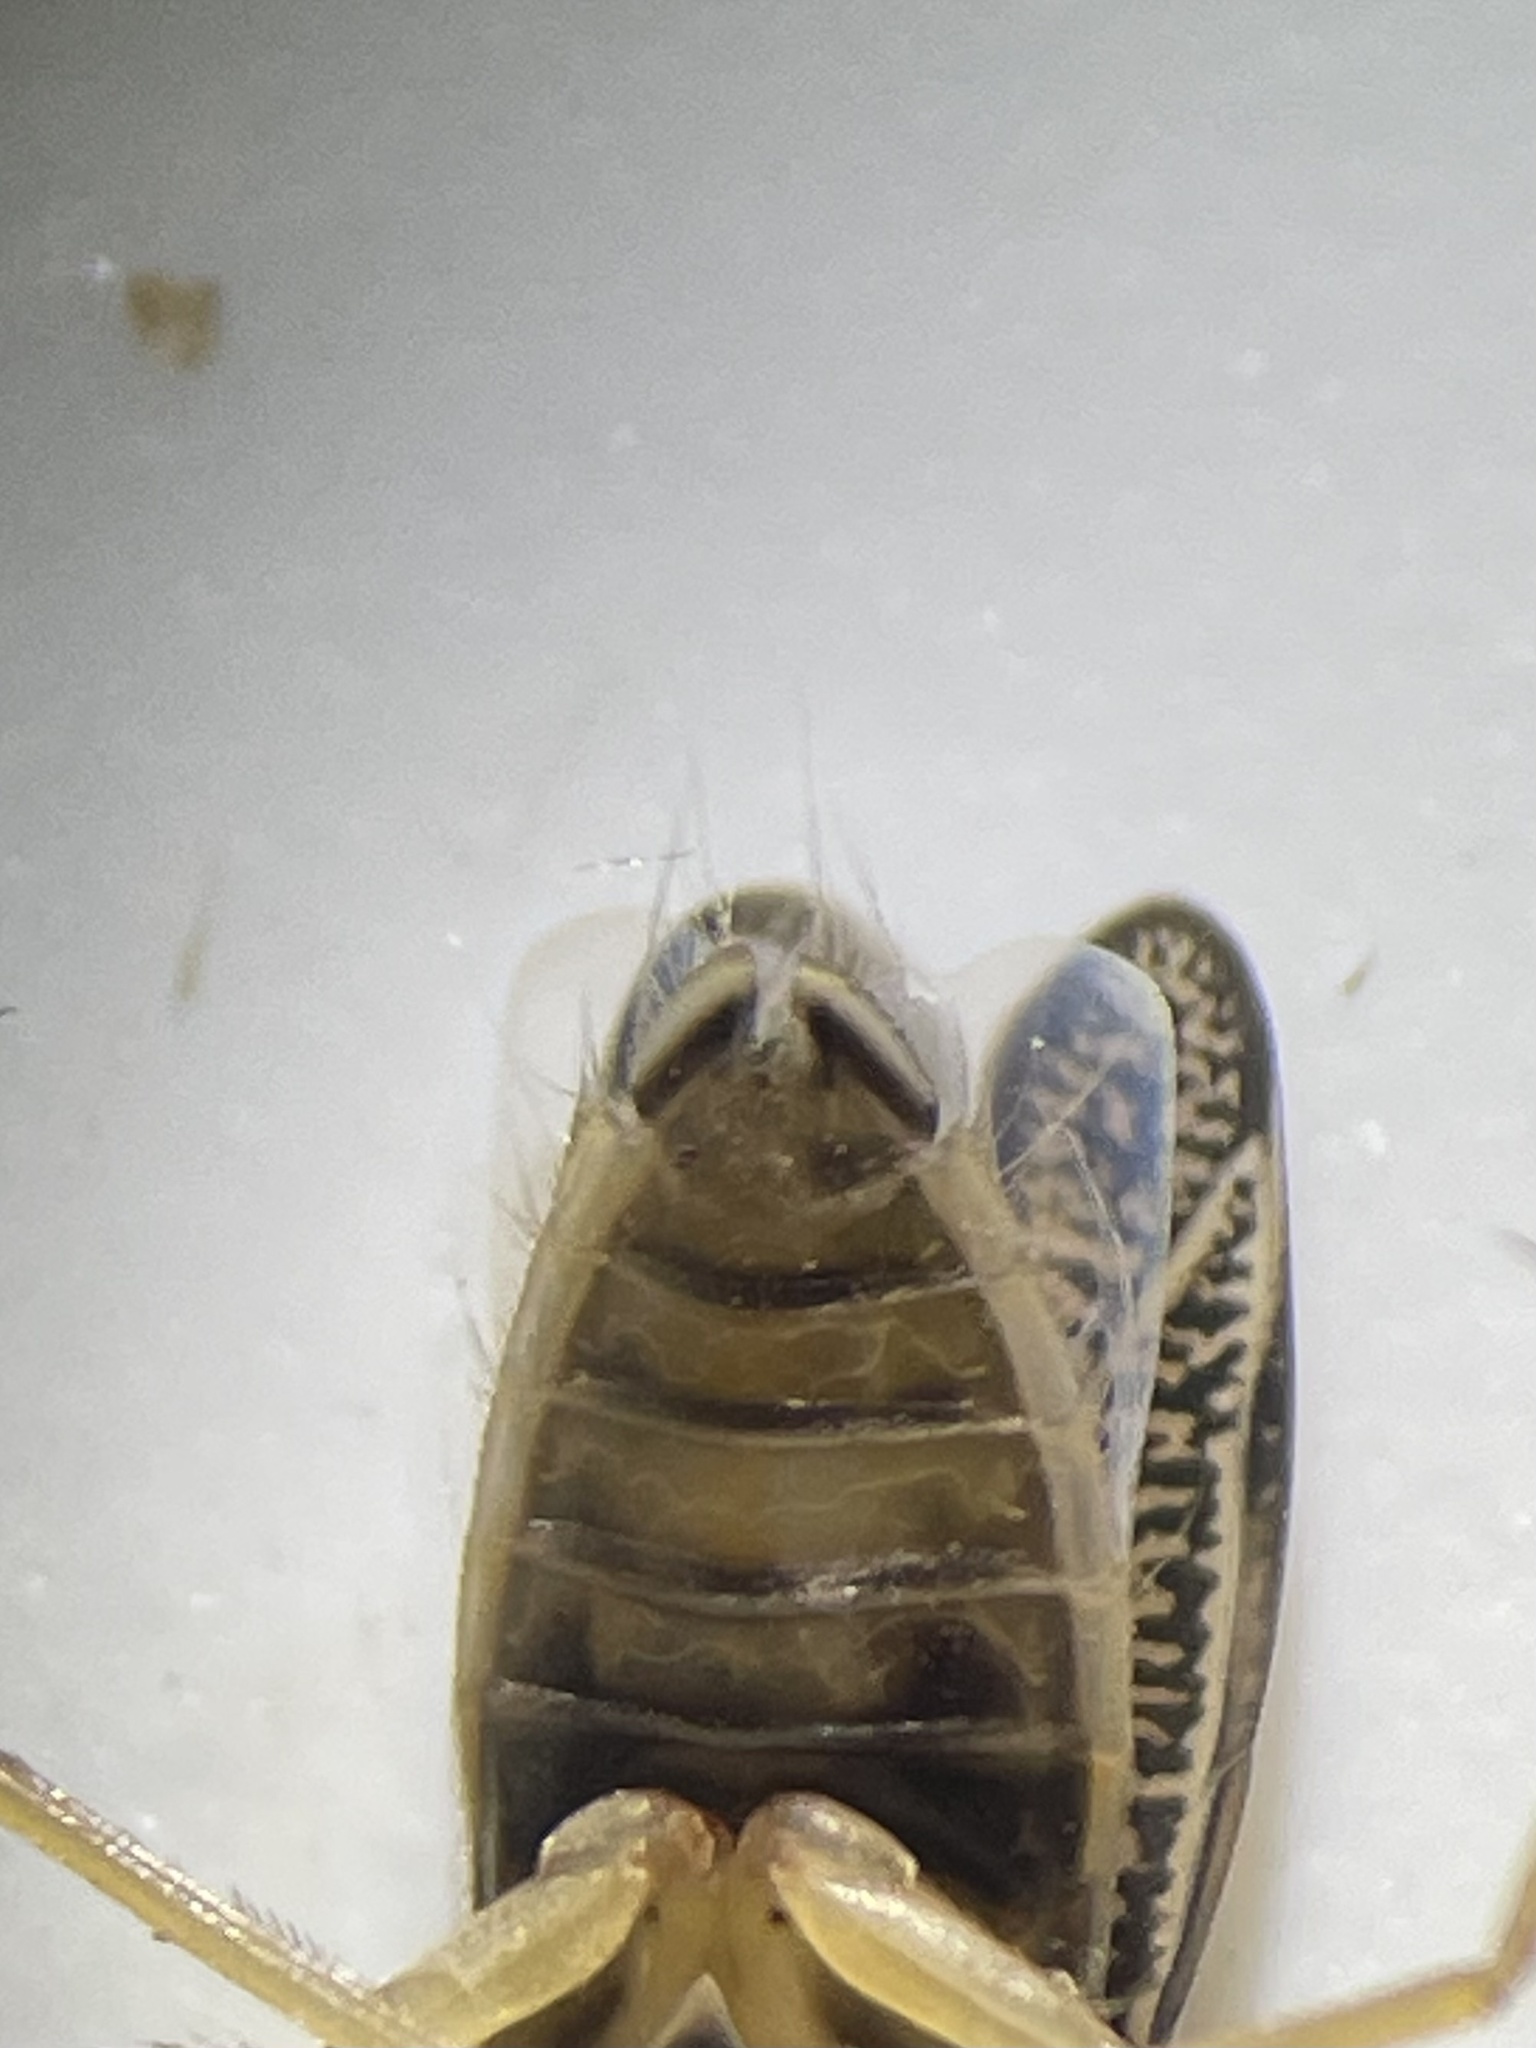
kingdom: Animalia
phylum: Arthropoda
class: Insecta
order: Hemiptera
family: Corixidae
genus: Sigara
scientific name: Sigara
